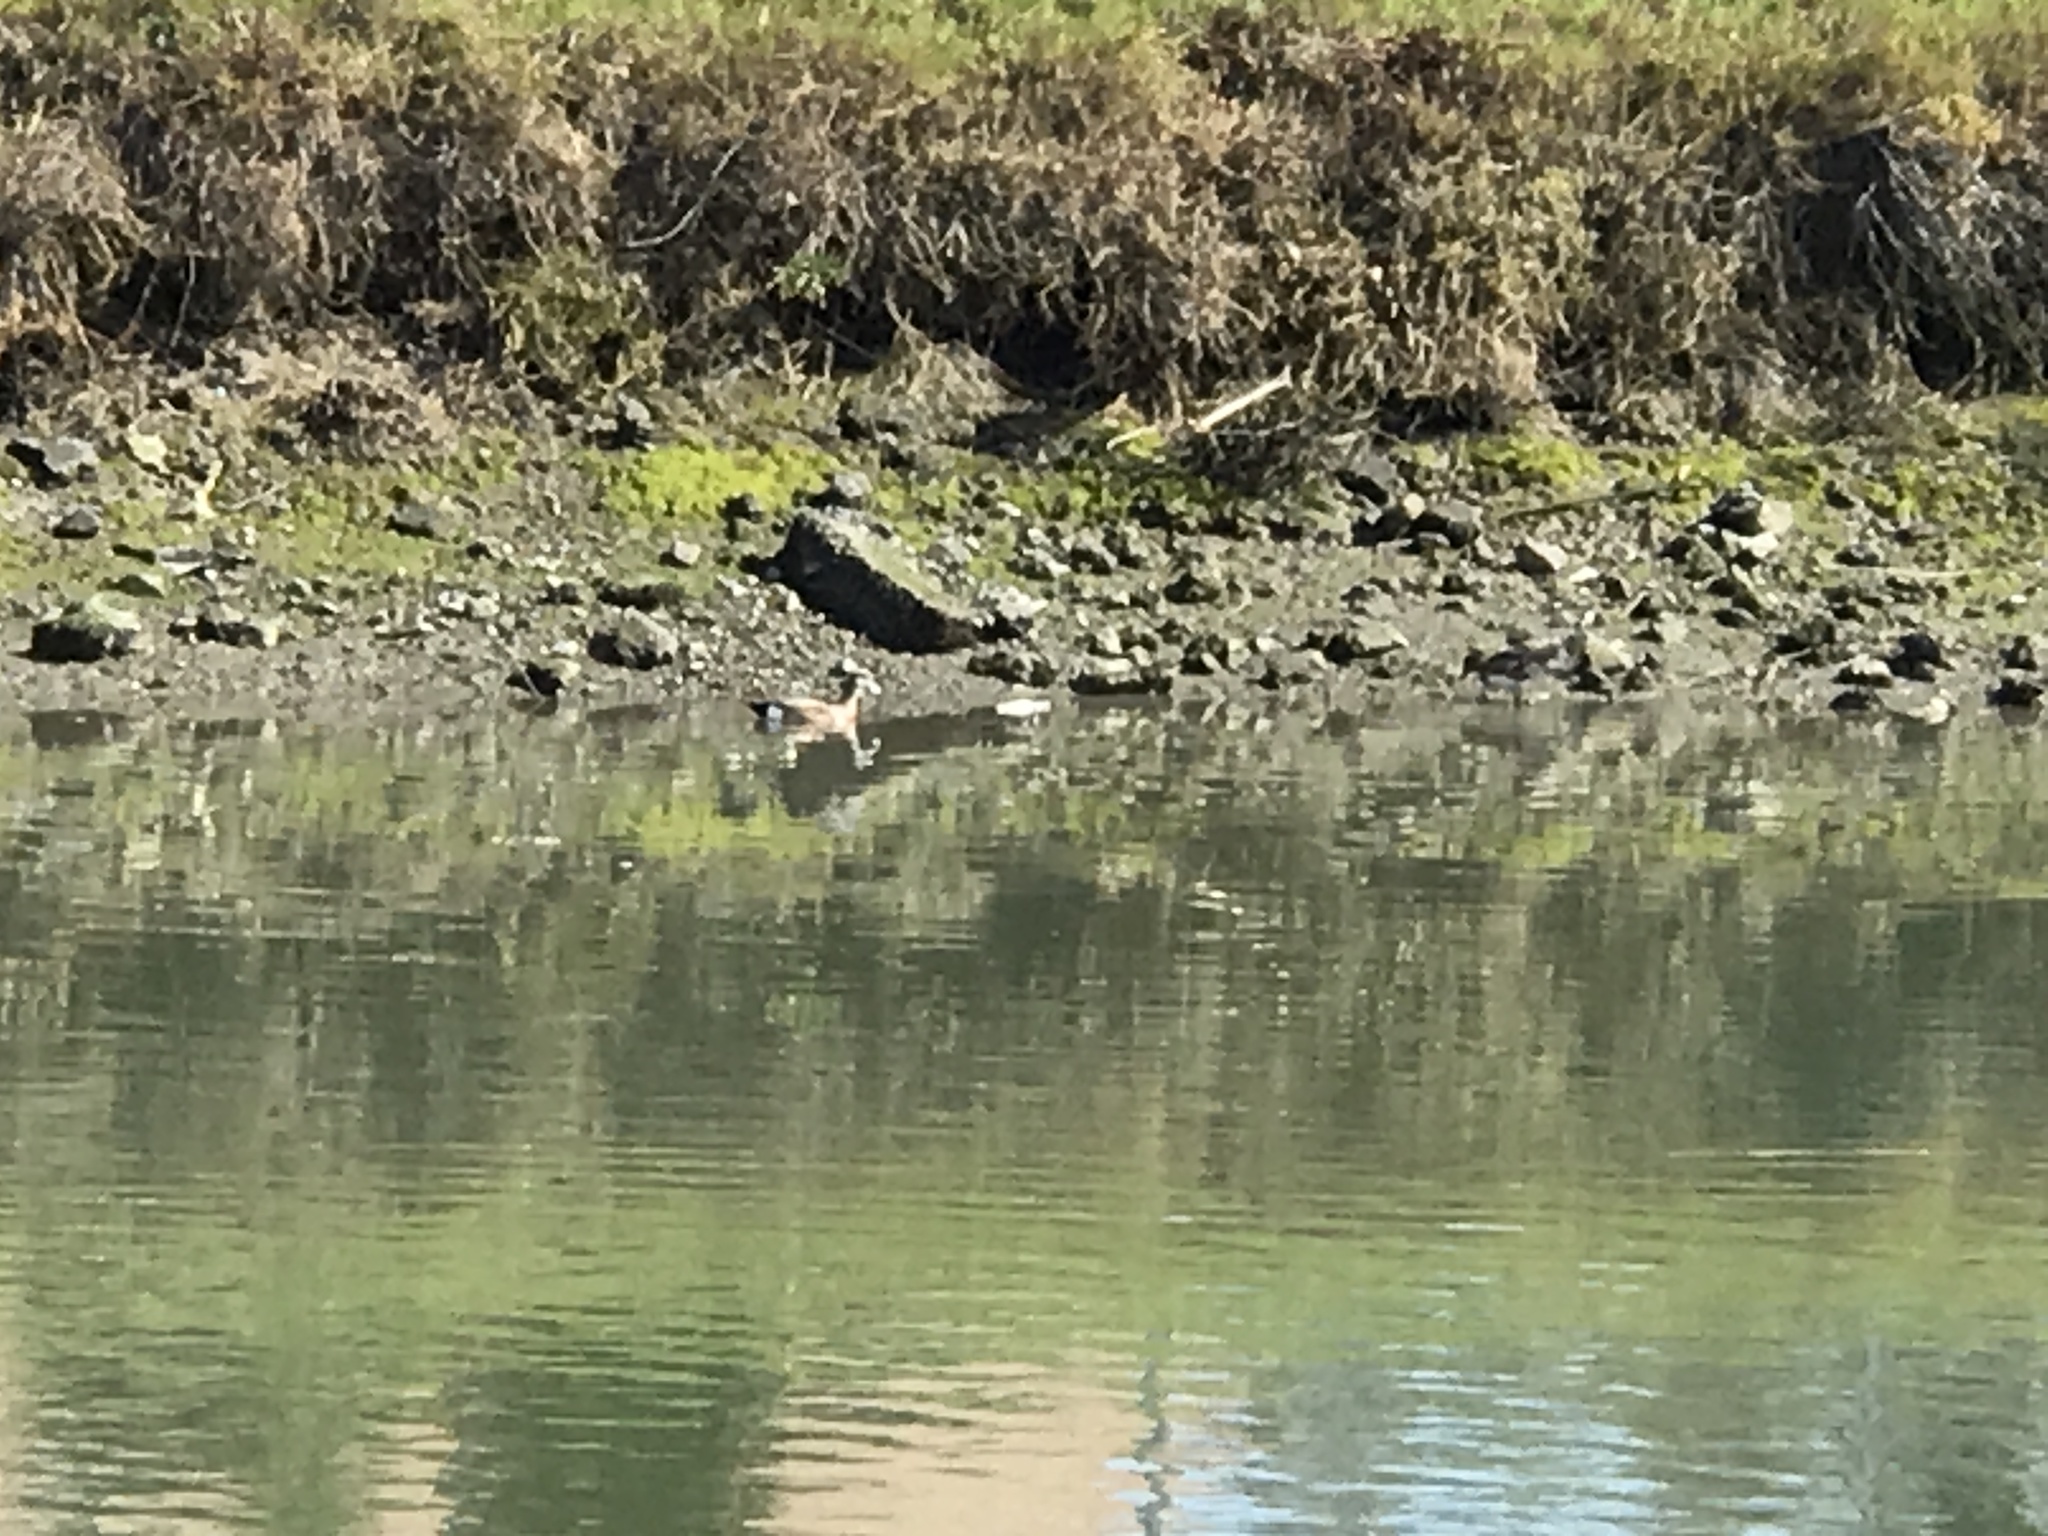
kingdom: Animalia
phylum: Chordata
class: Aves
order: Anseriformes
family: Anatidae
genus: Mareca
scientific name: Mareca americana
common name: American wigeon
